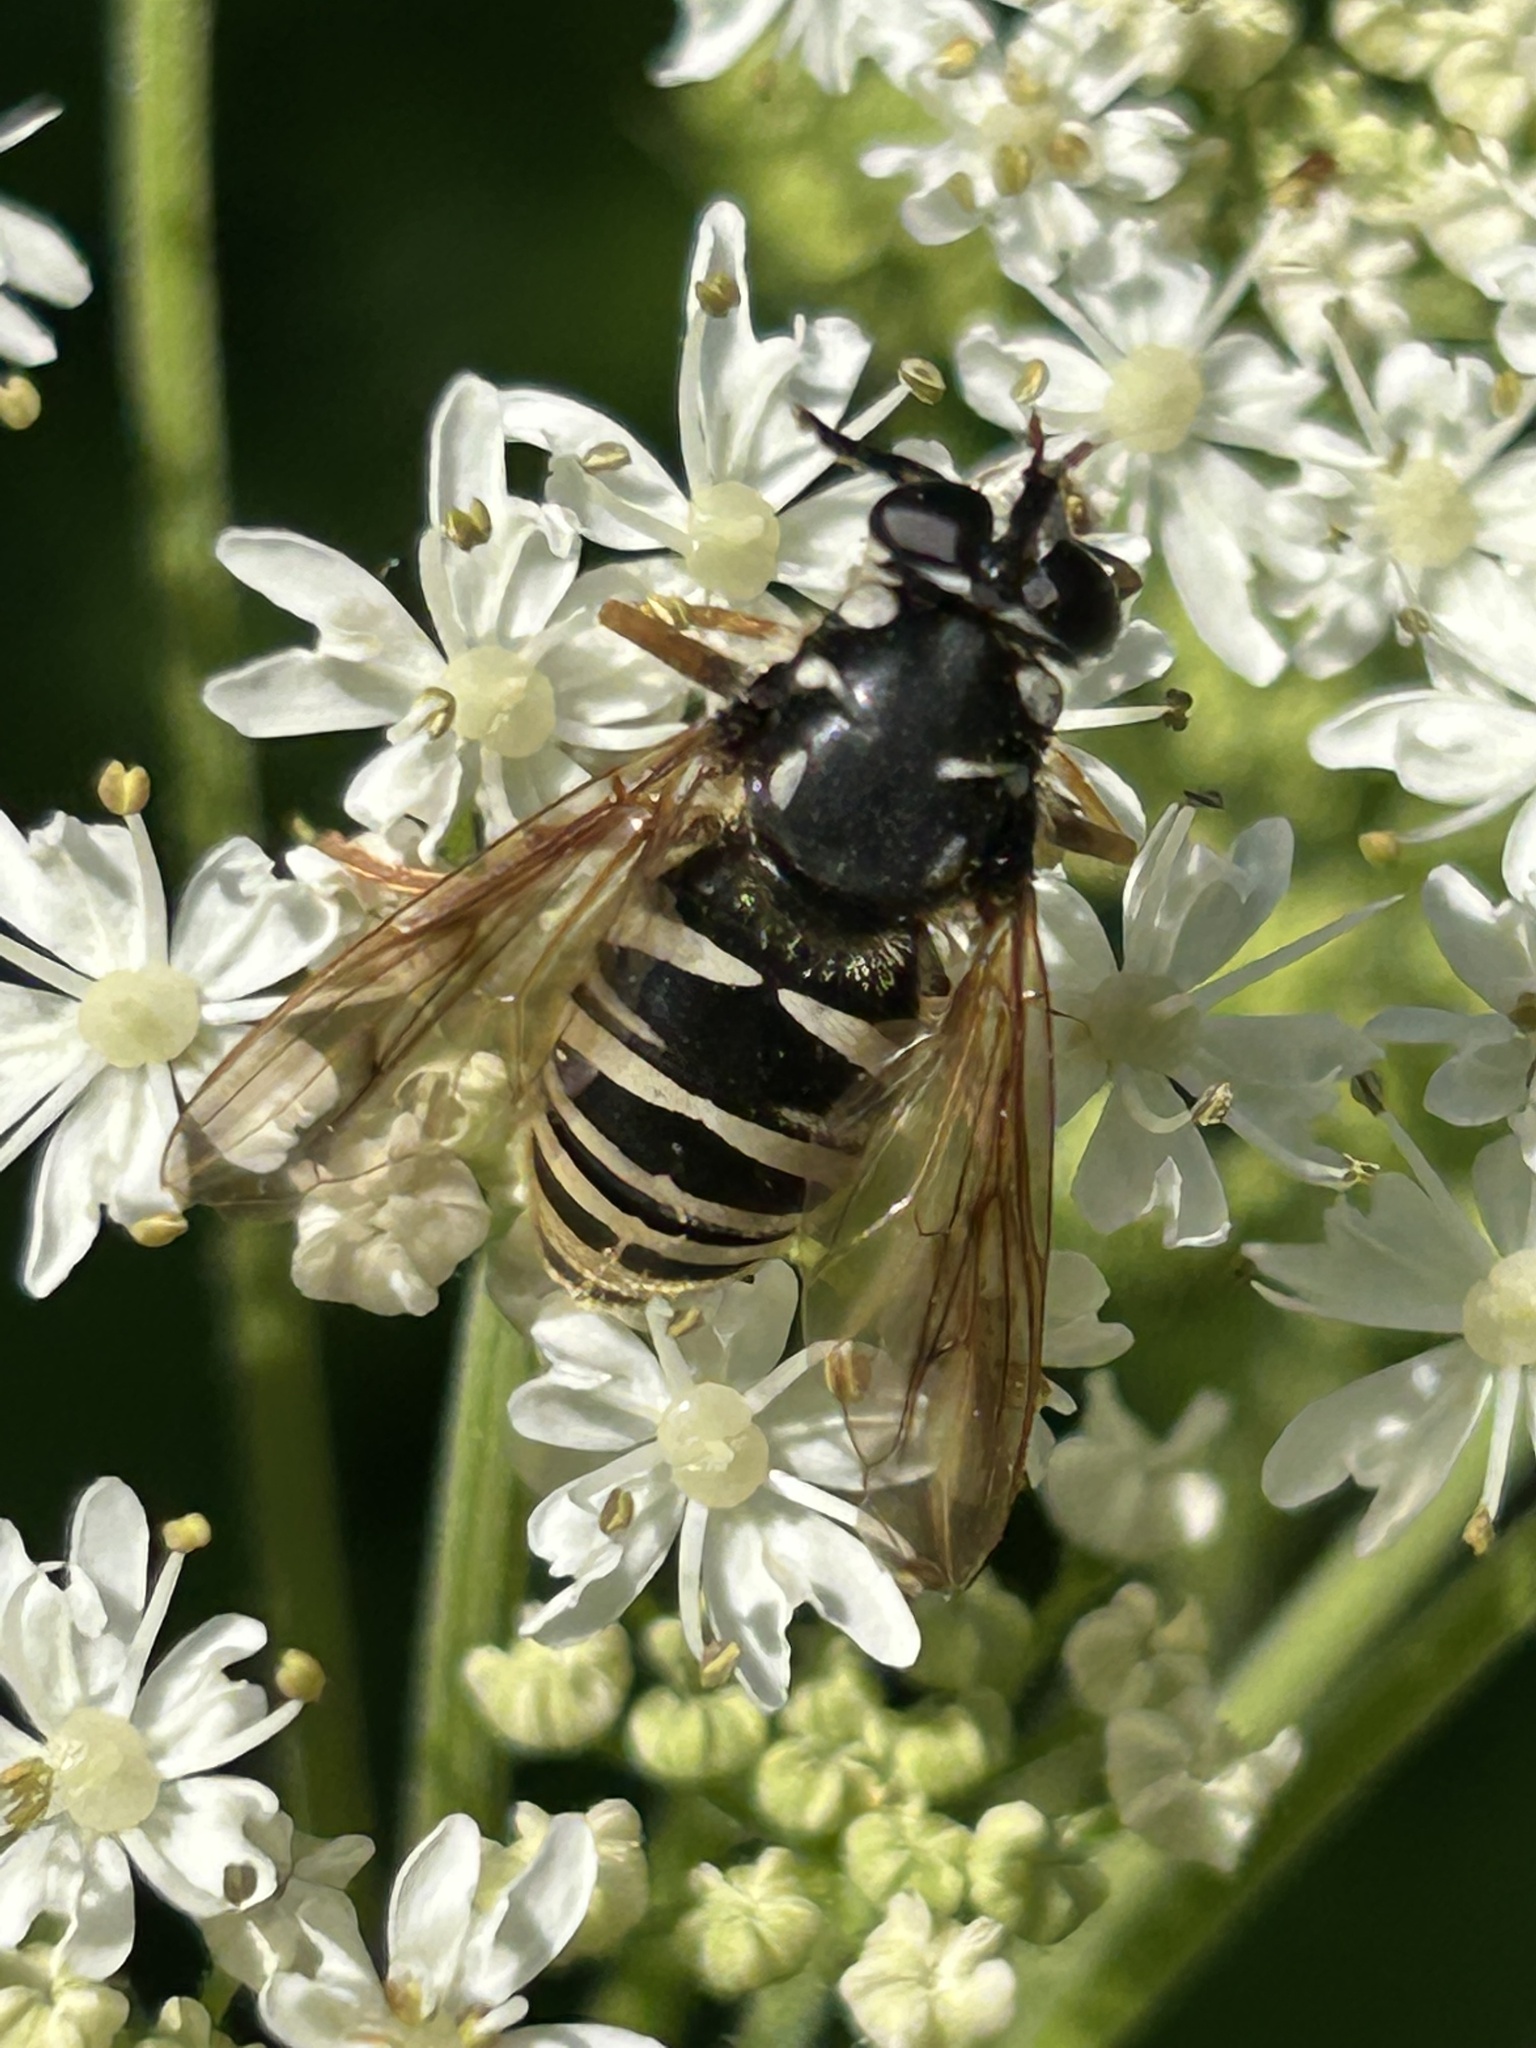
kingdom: Animalia
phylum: Arthropoda
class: Insecta
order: Diptera
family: Syrphidae
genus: Temnostoma
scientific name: Temnostoma excentricum
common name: Black-spotted falsehorn
